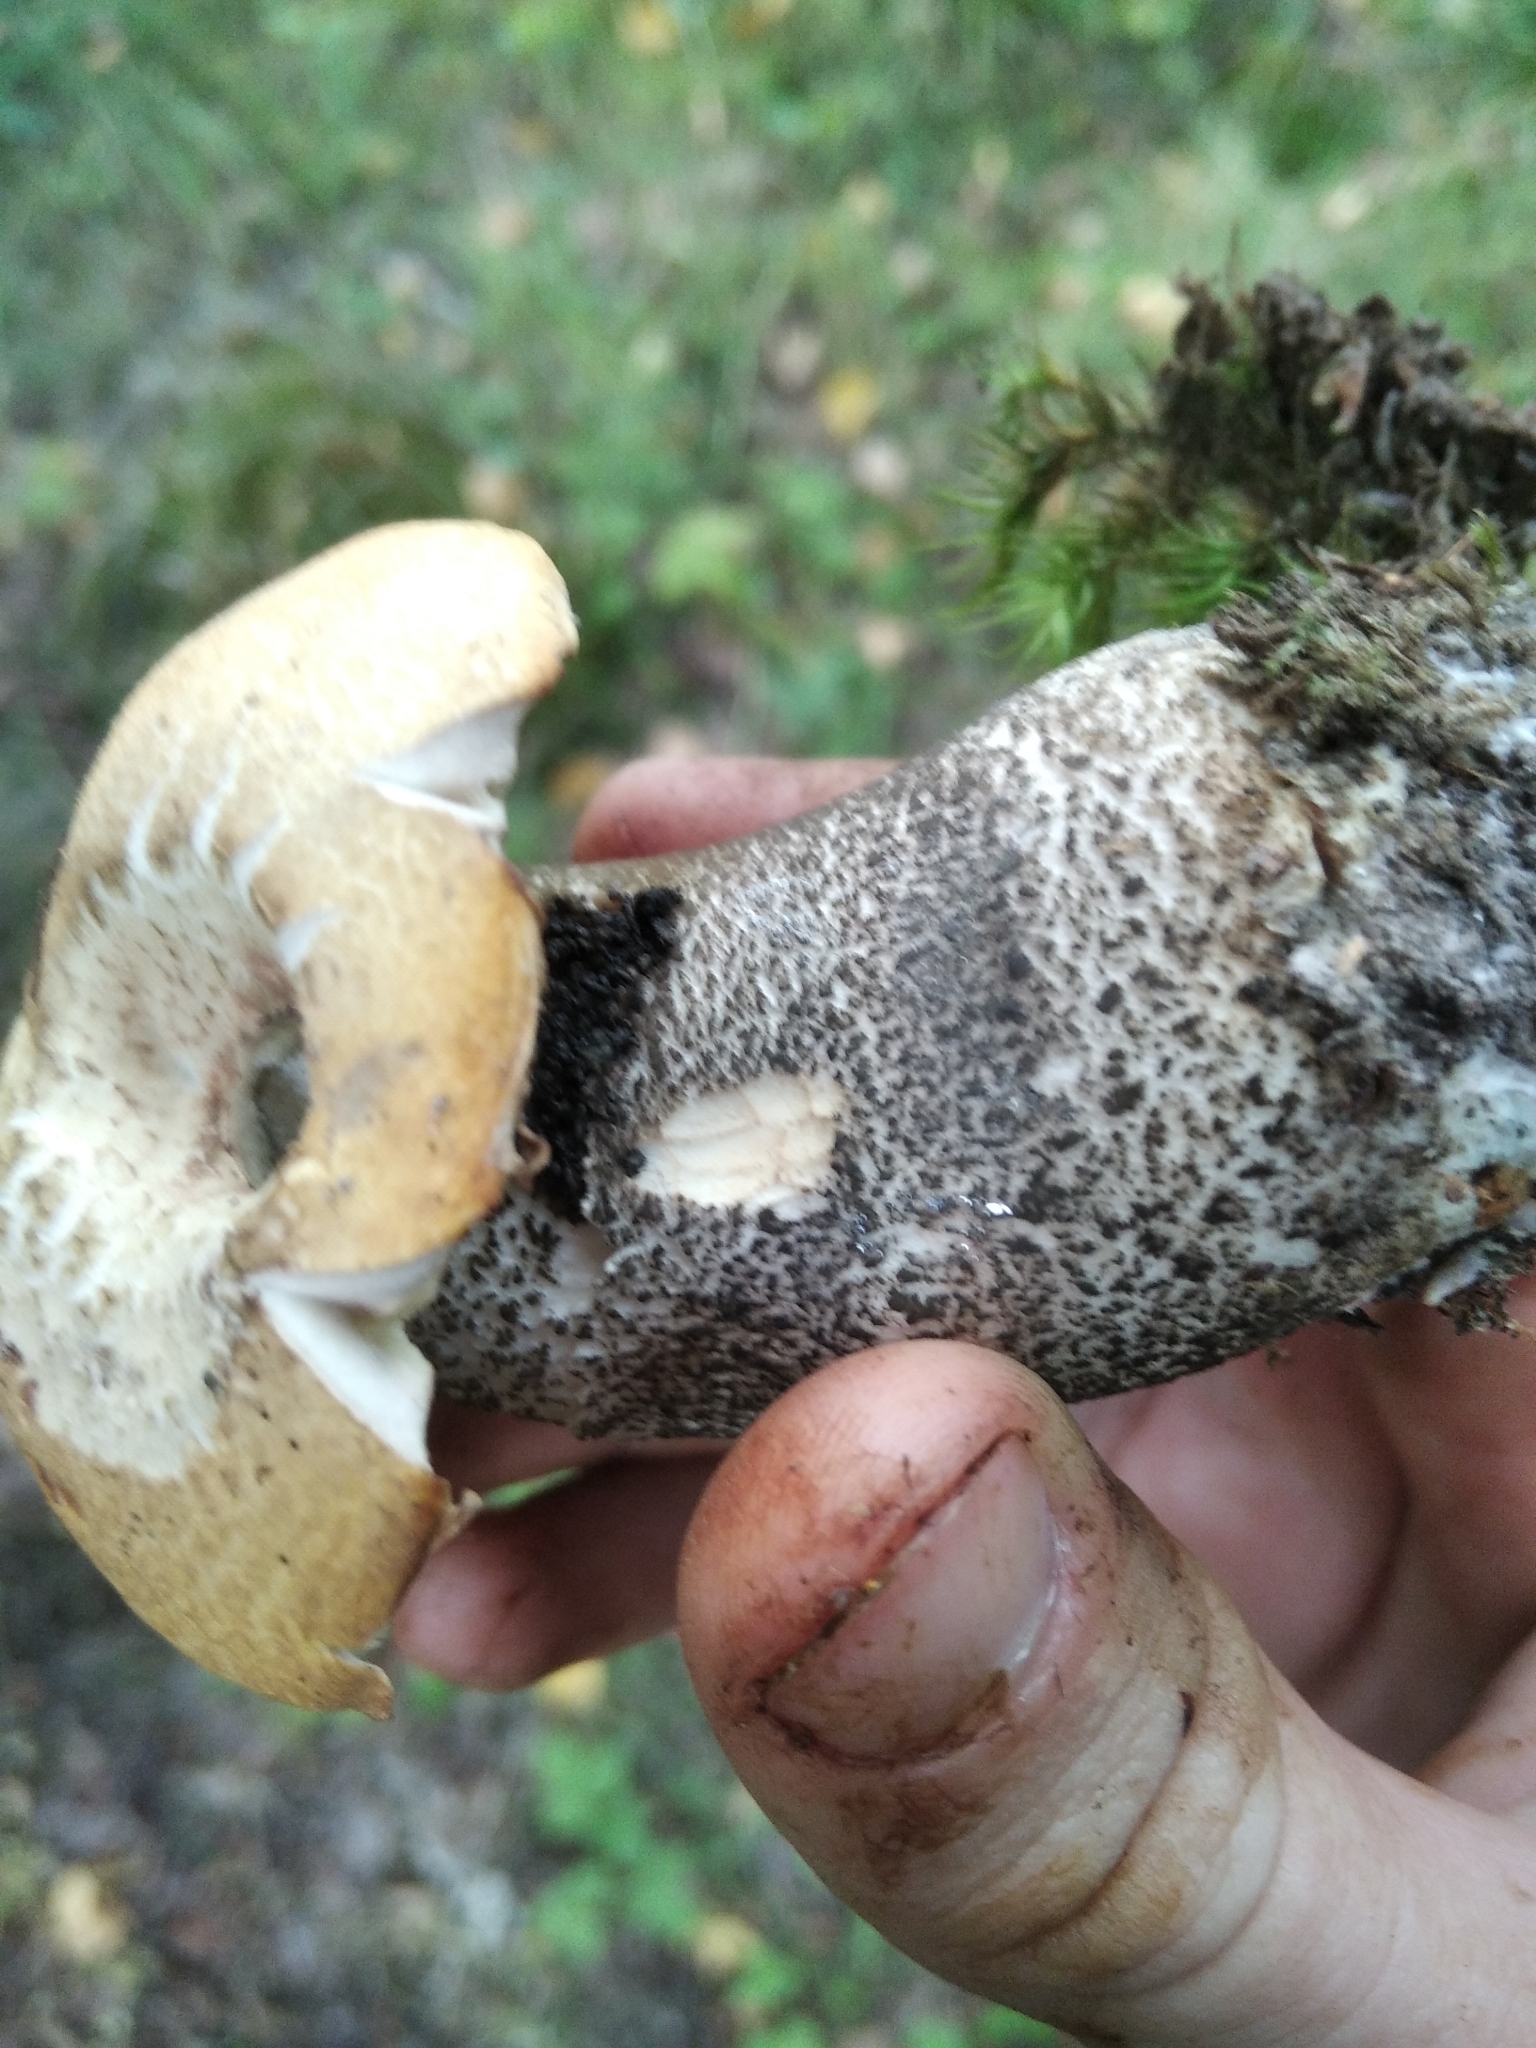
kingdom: Fungi
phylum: Basidiomycota
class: Agaricomycetes
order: Boletales
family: Boletaceae
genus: Leccinum
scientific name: Leccinum versipelle
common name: Orange birch bolete
